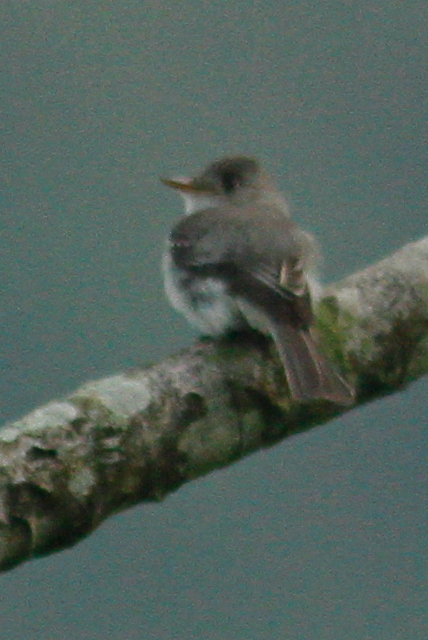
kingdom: Animalia
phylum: Chordata
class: Aves
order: Passeriformes
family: Tyrannidae
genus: Contopus
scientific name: Contopus punensis
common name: Tumbes pewee
